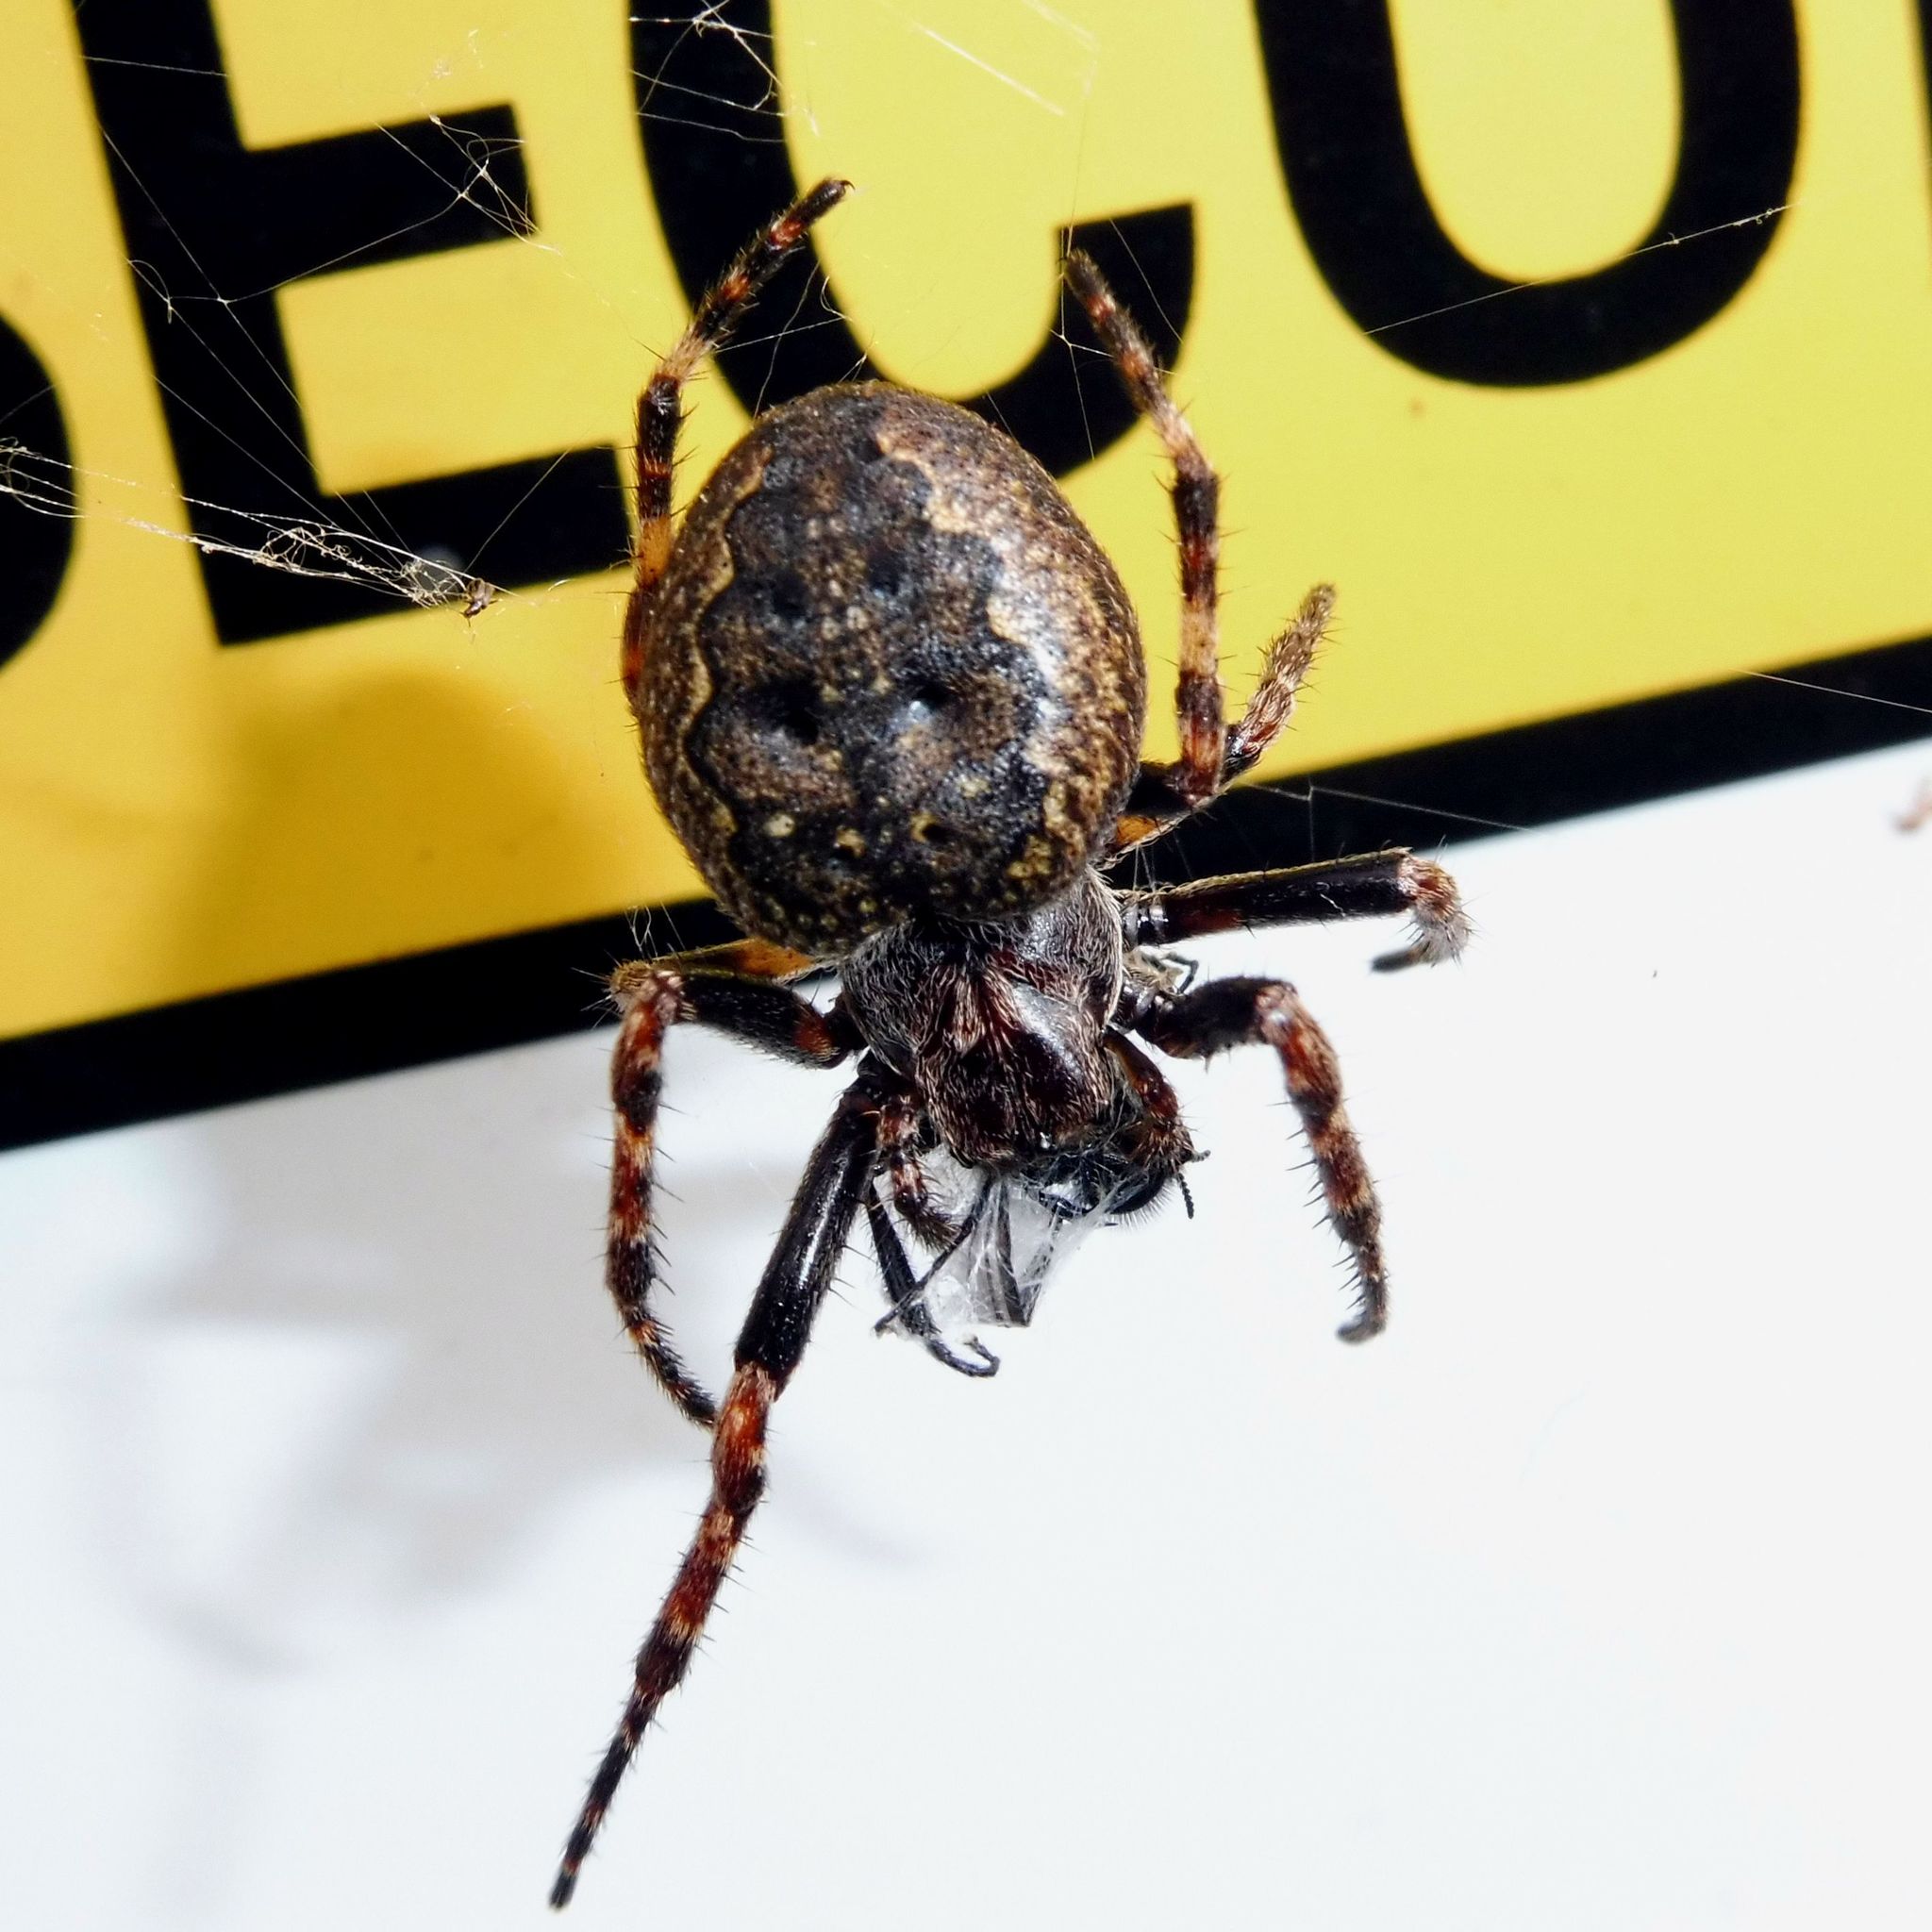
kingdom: Animalia
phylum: Arthropoda
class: Arachnida
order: Araneae
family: Araneidae
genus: Nuctenea
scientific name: Nuctenea umbratica
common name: Toad spider
